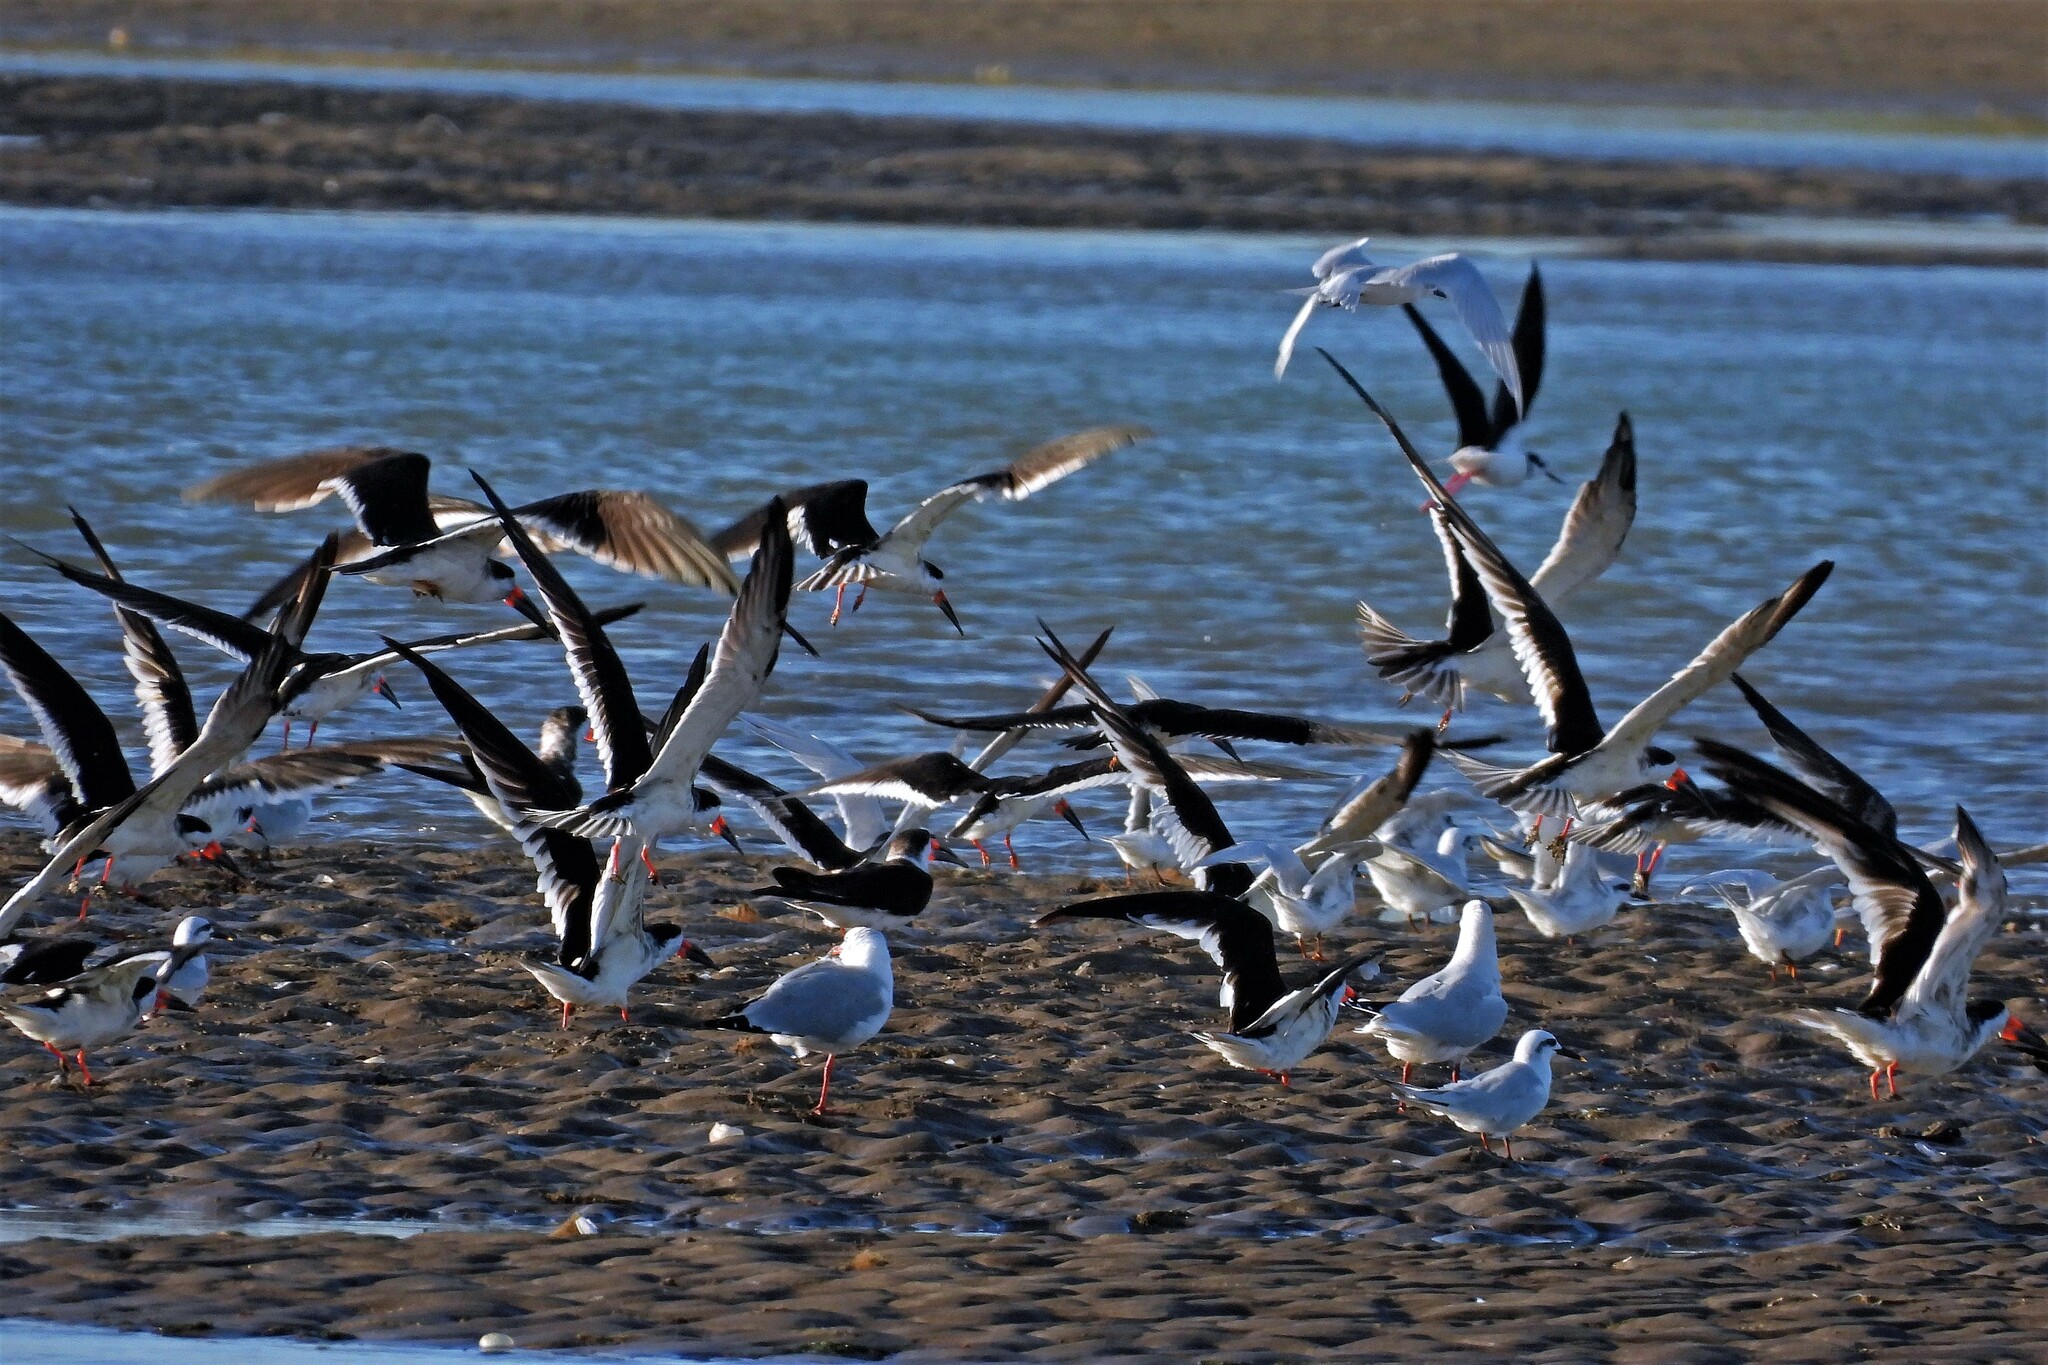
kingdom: Animalia
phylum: Chordata
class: Aves
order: Charadriiformes
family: Laridae
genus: Rynchops
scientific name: Rynchops niger
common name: Black skimmer
